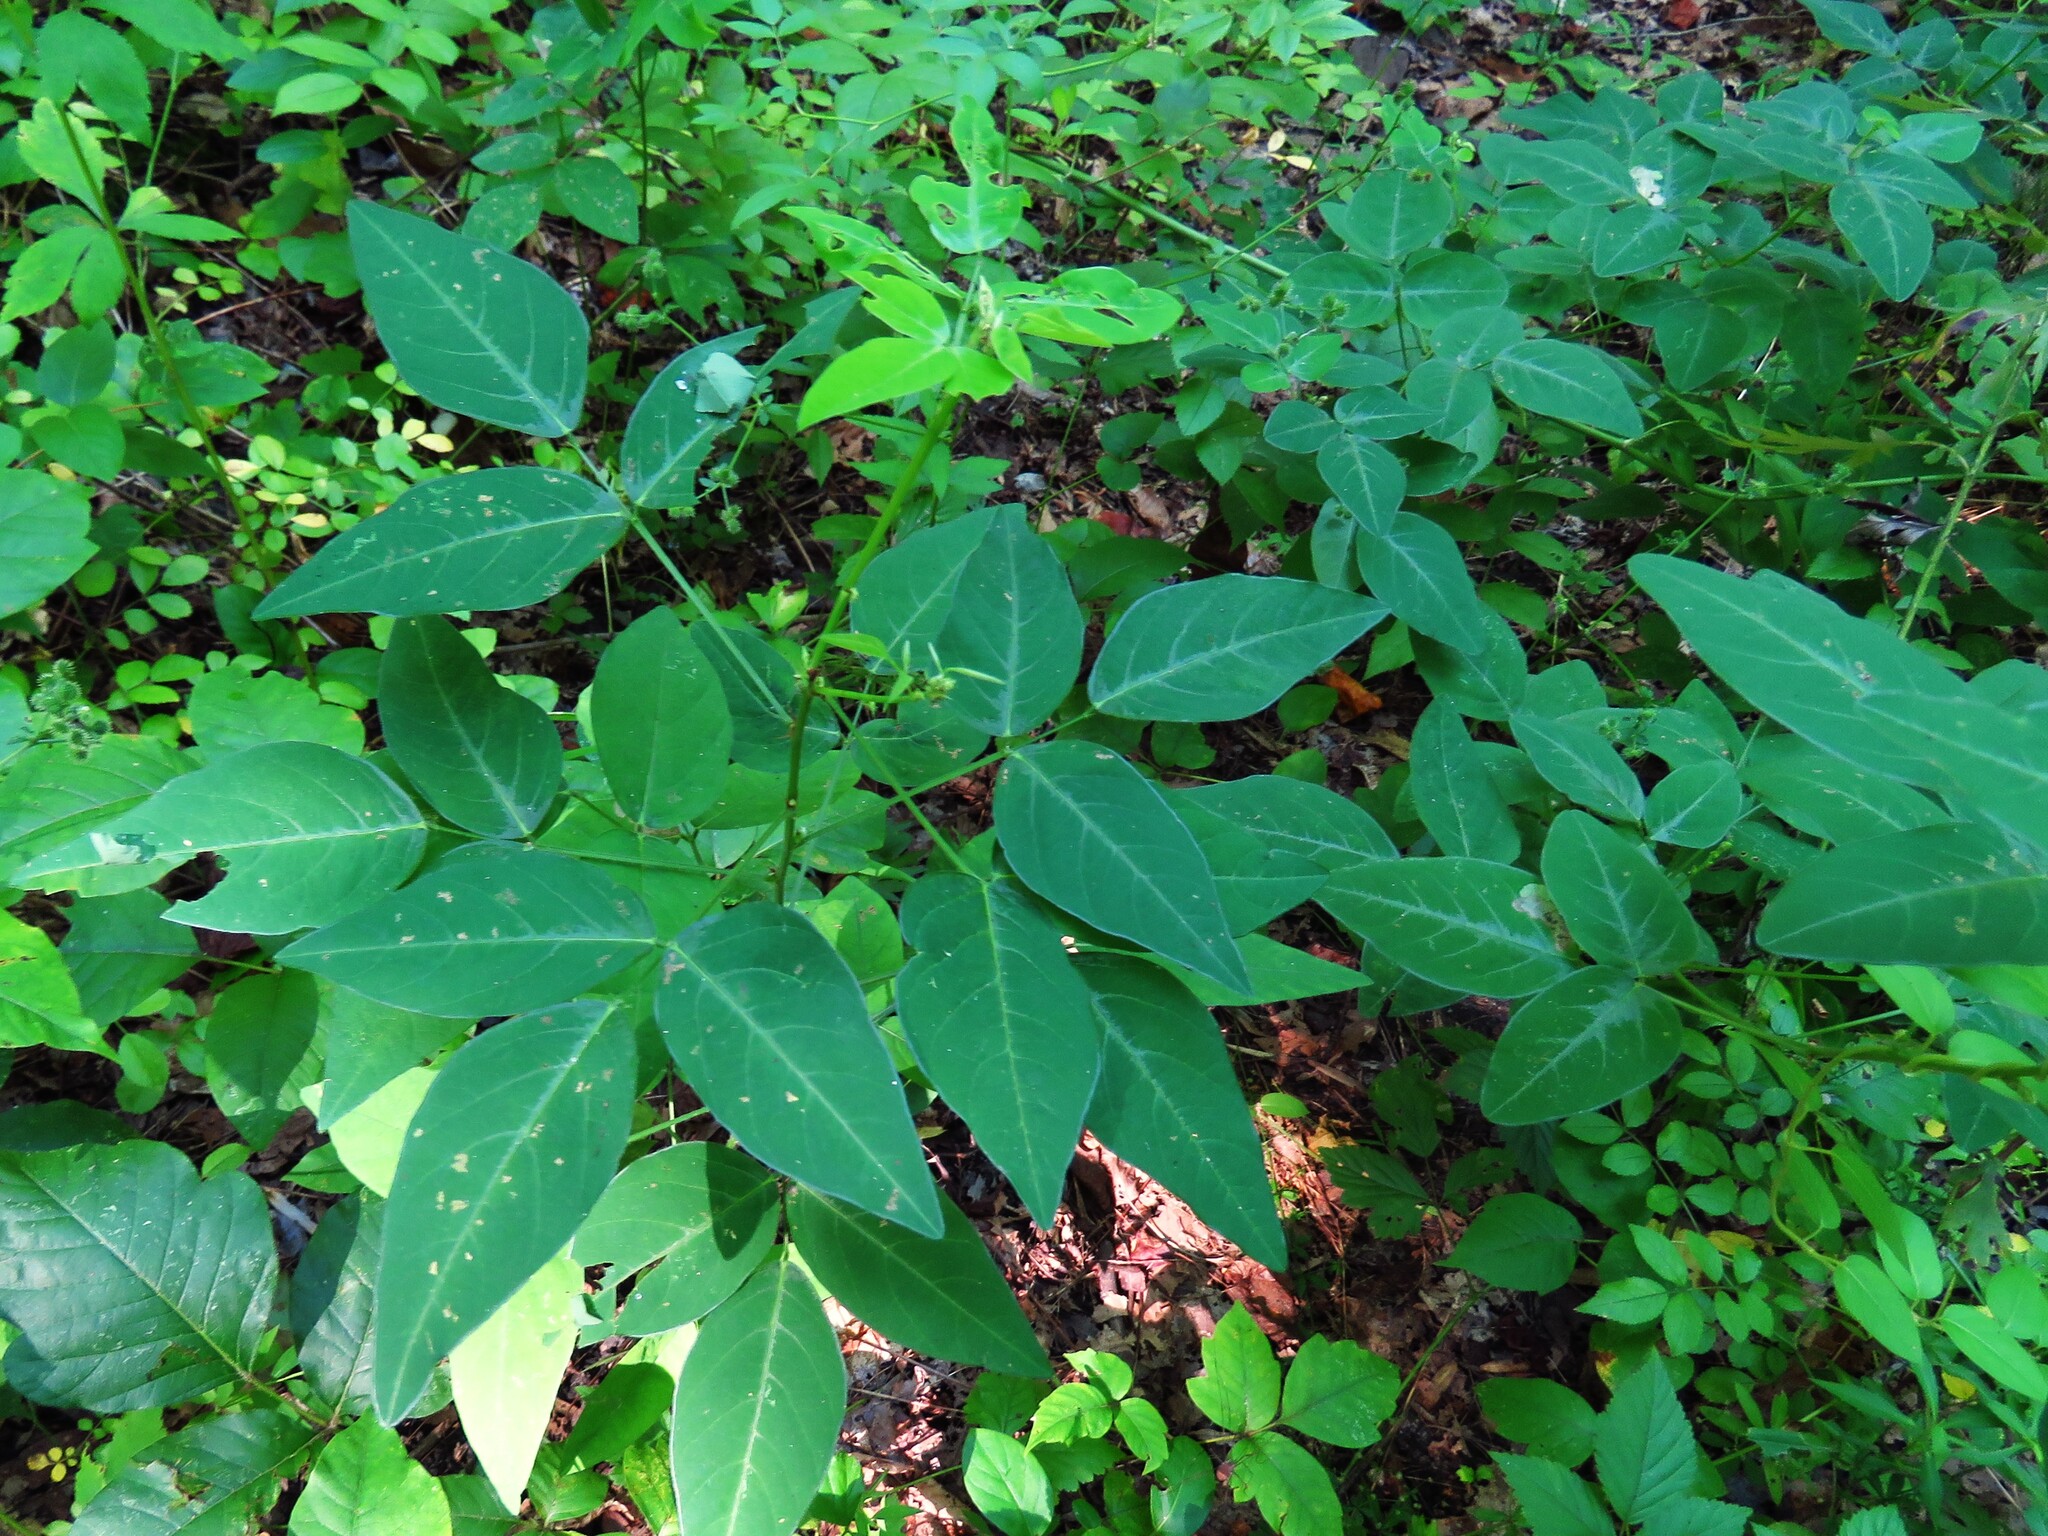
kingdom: Plantae
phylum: Tracheophyta
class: Magnoliopsida
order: Fabales
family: Fabaceae
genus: Desmodium
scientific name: Desmodium paniculatum
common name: Panicled tick-clover
